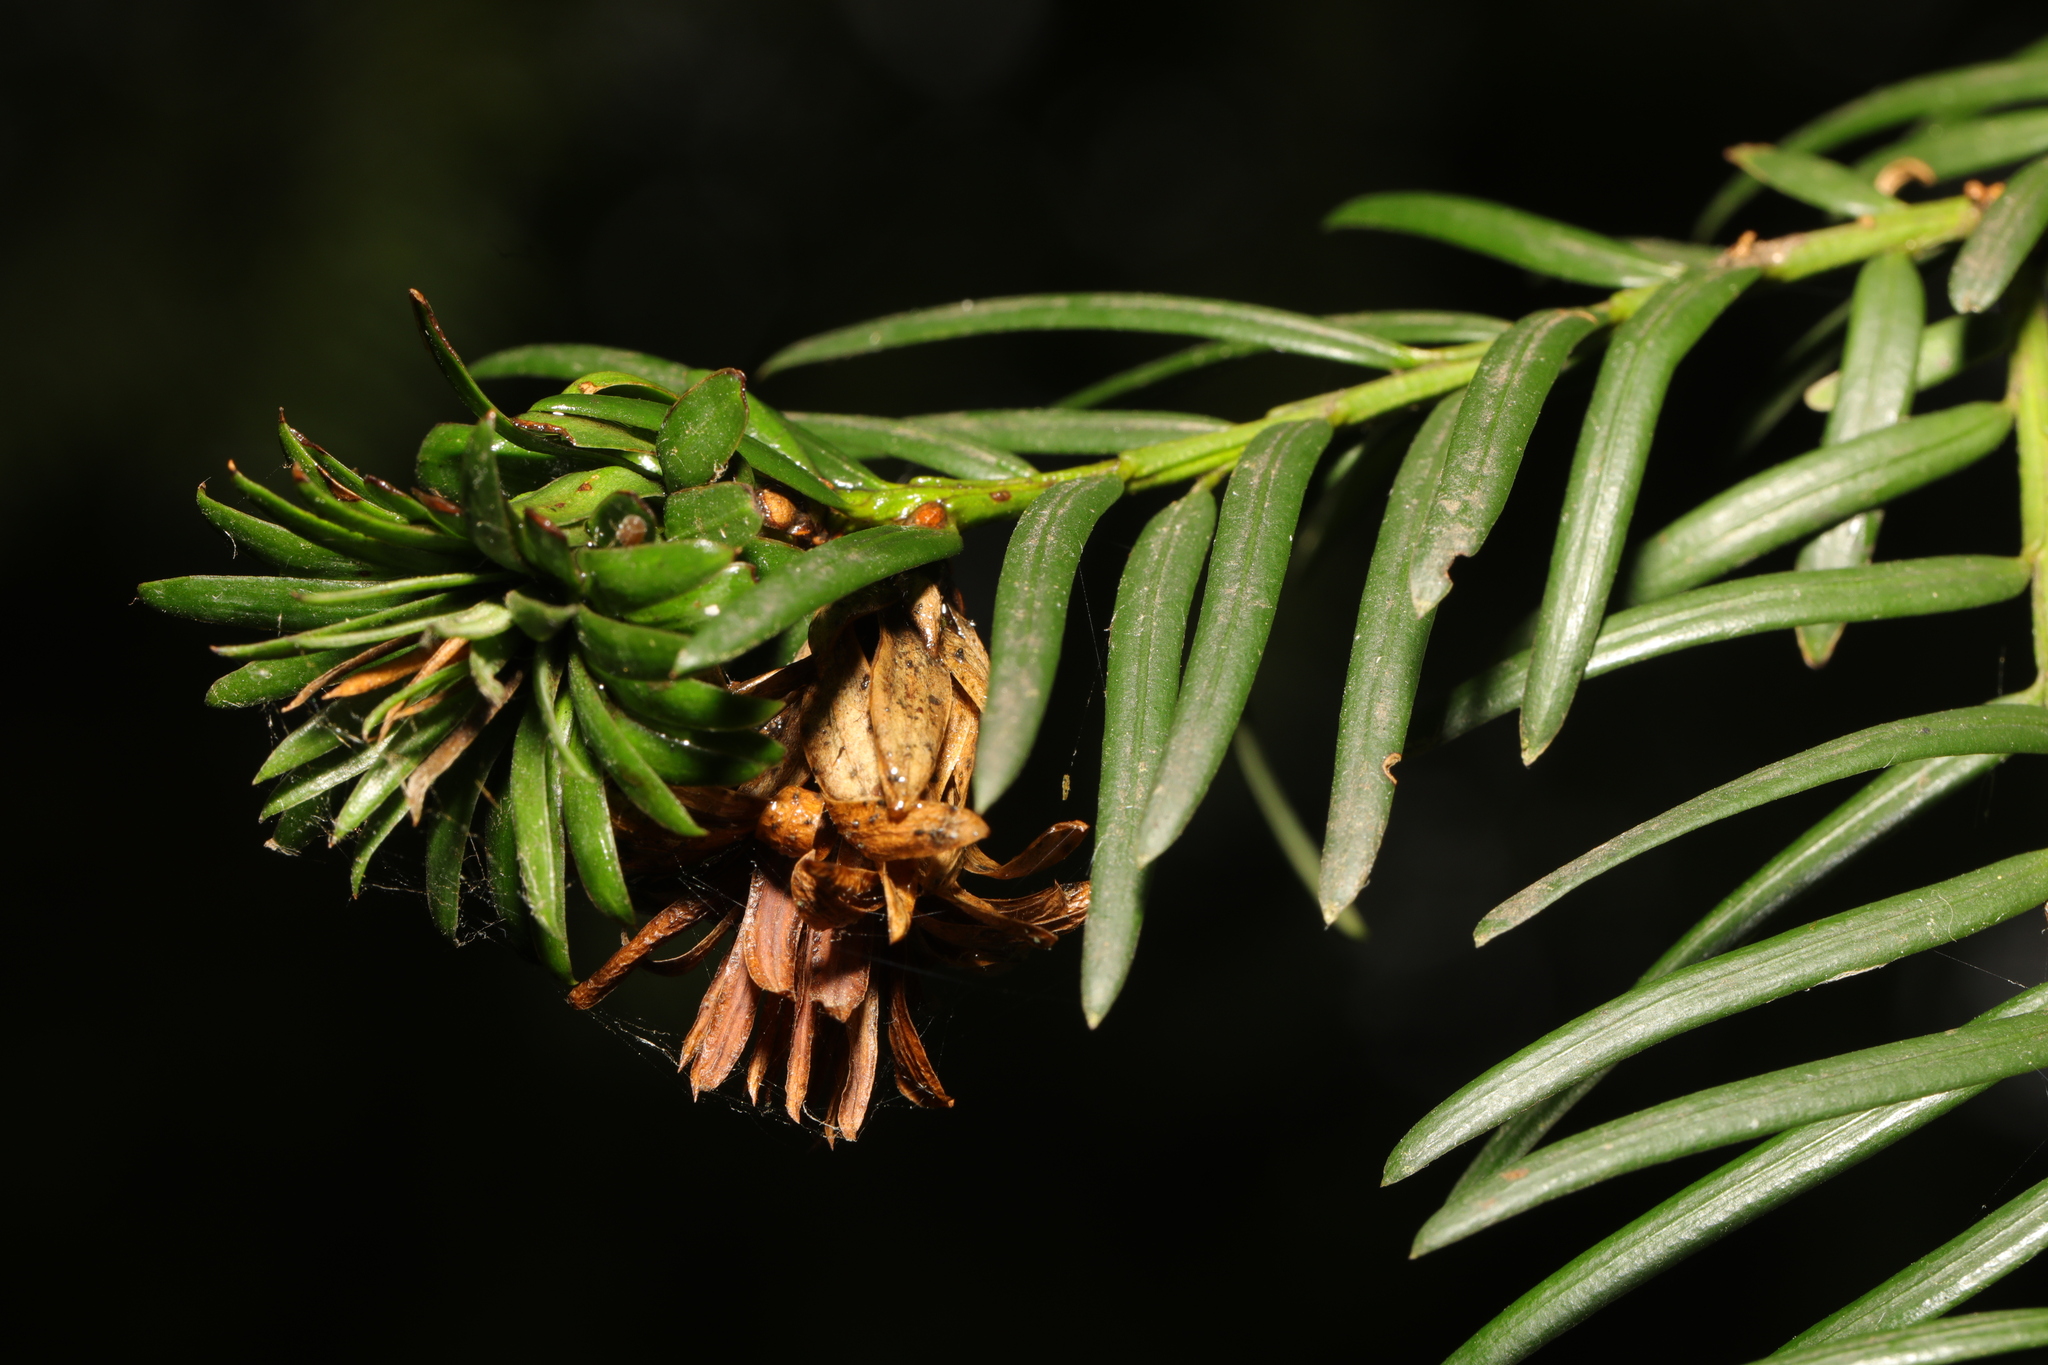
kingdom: Animalia
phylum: Arthropoda
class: Insecta
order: Diptera
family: Cecidomyiidae
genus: Taxomyia
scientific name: Taxomyia taxi
